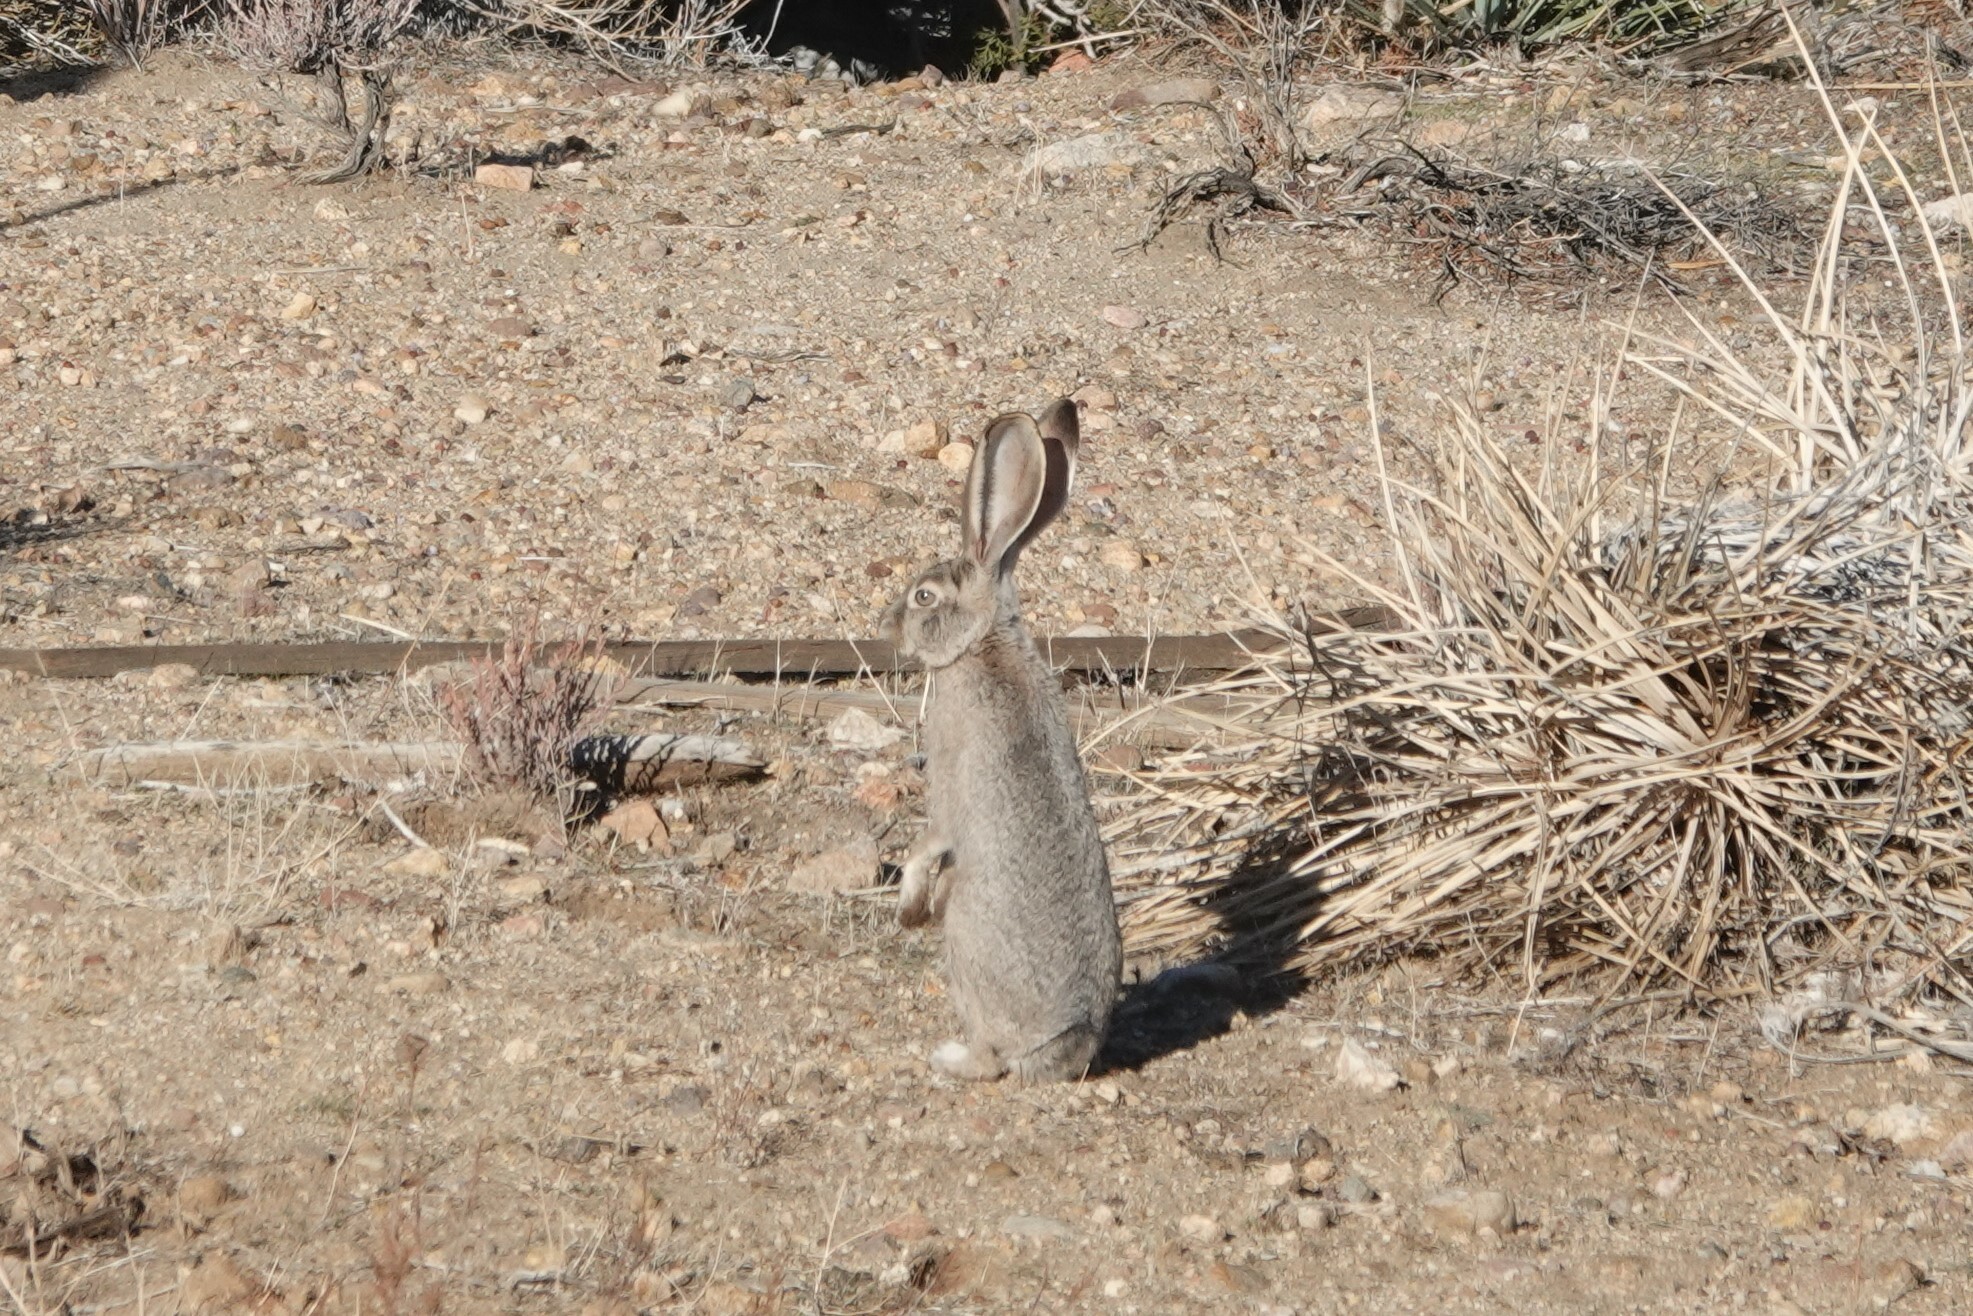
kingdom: Animalia
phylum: Chordata
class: Mammalia
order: Lagomorpha
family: Leporidae
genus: Lepus
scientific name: Lepus californicus
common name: Black-tailed jackrabbit
